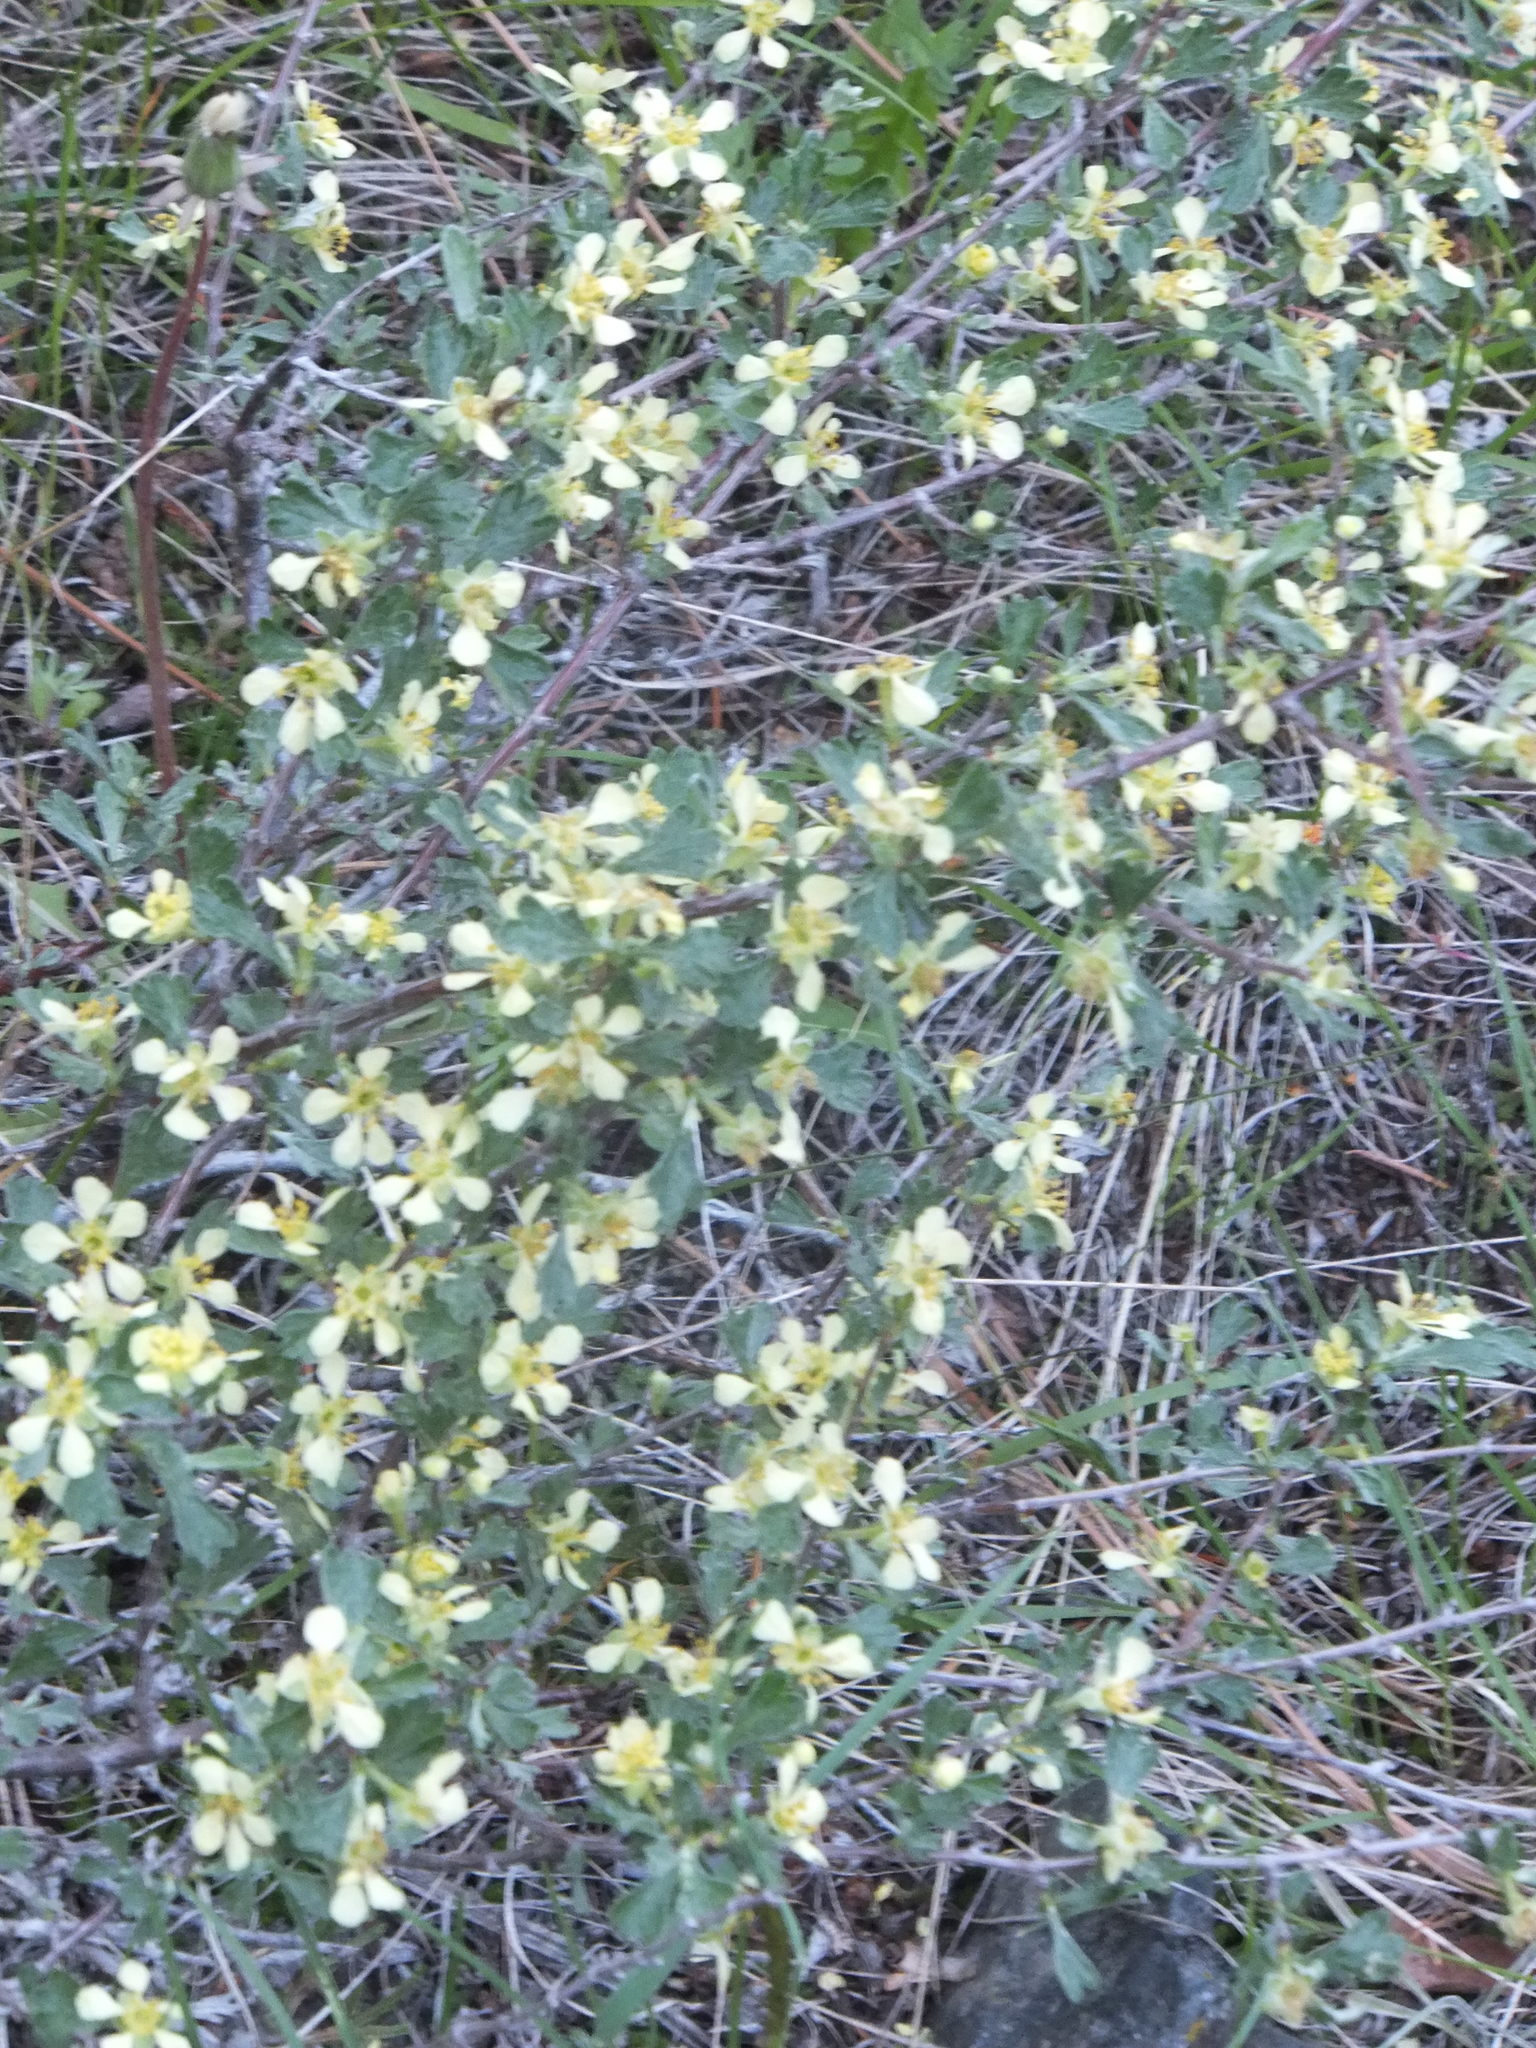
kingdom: Plantae
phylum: Tracheophyta
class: Magnoliopsida
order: Rosales
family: Rosaceae
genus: Purshia
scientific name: Purshia tridentata
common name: Antelope bitterbrush
